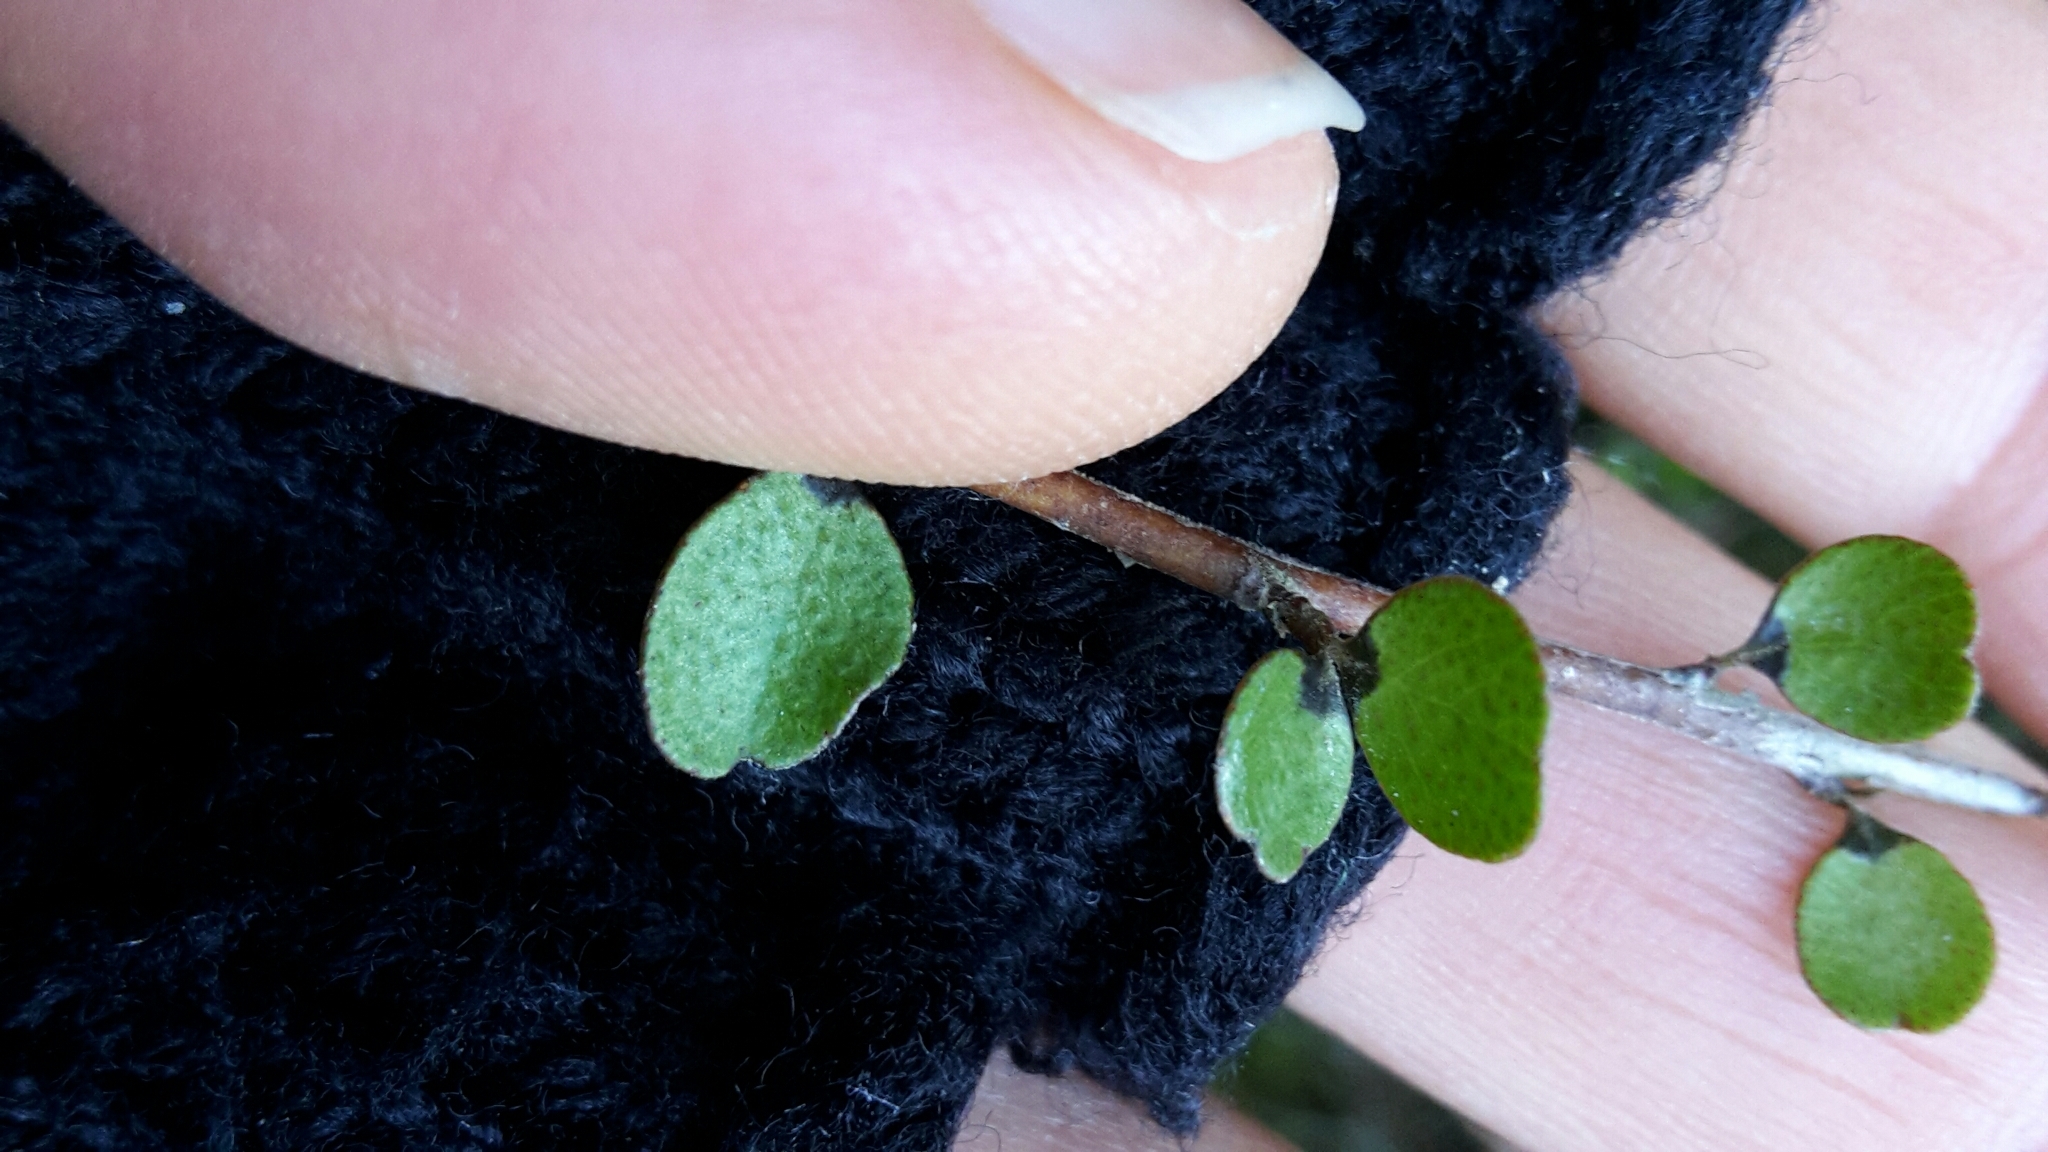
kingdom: Plantae
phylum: Tracheophyta
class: Magnoliopsida
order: Ericales
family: Primulaceae
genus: Myrsine
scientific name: Myrsine divaricata
